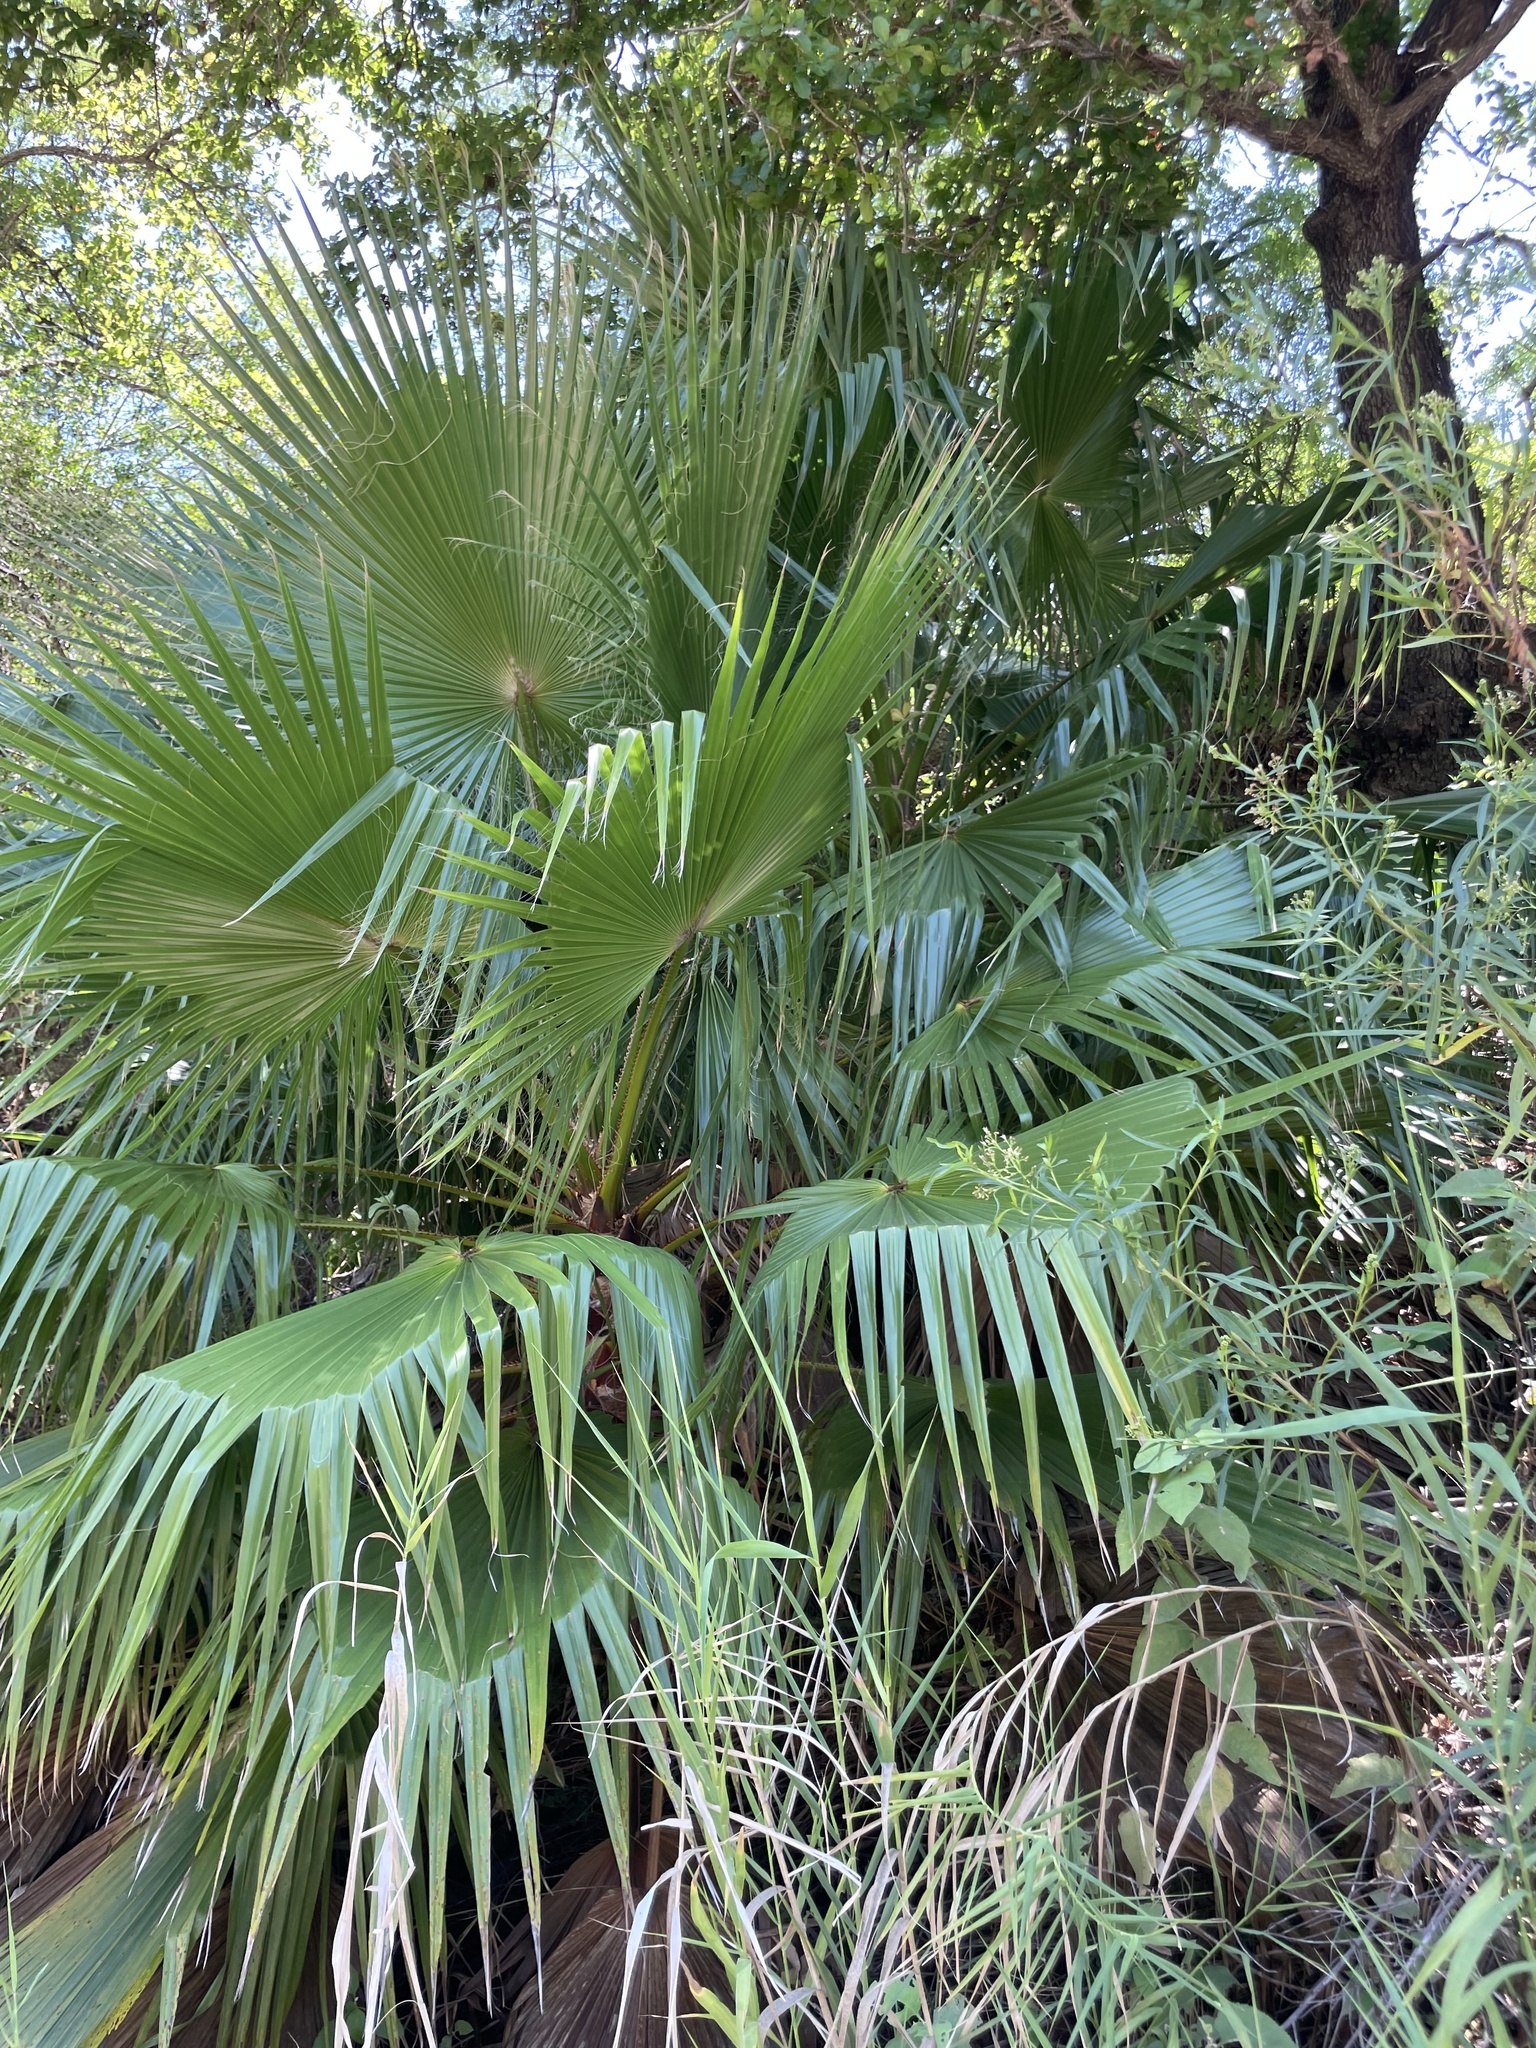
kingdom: Plantae
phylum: Tracheophyta
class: Liliopsida
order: Arecales
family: Arecaceae
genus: Washingtonia
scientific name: Washingtonia robusta
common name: Mexican fan palm
